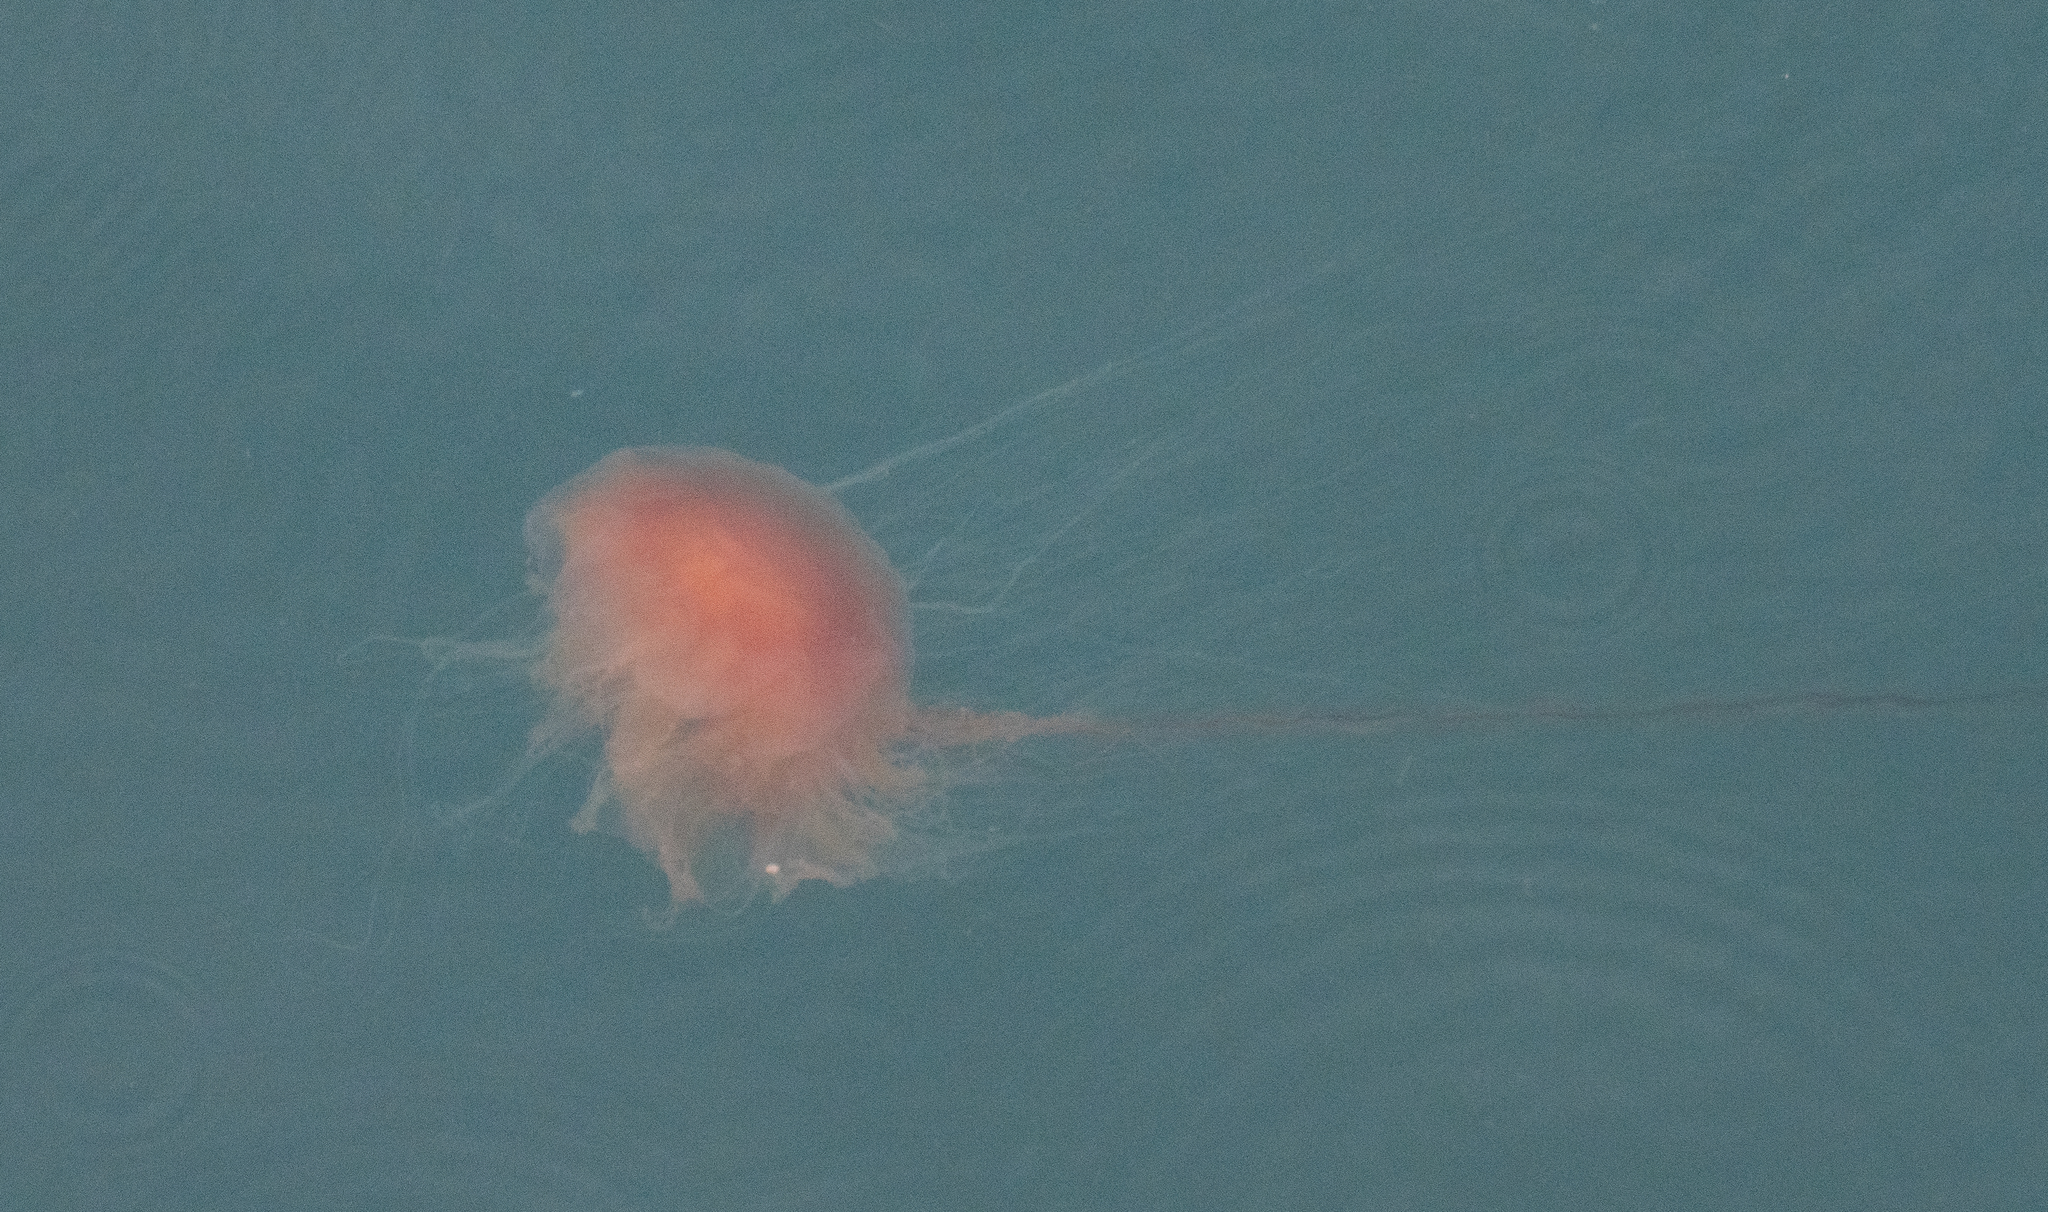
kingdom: Animalia
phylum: Cnidaria
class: Scyphozoa
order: Semaeostomeae
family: Cyaneidae
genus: Cyanea
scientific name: Cyanea
